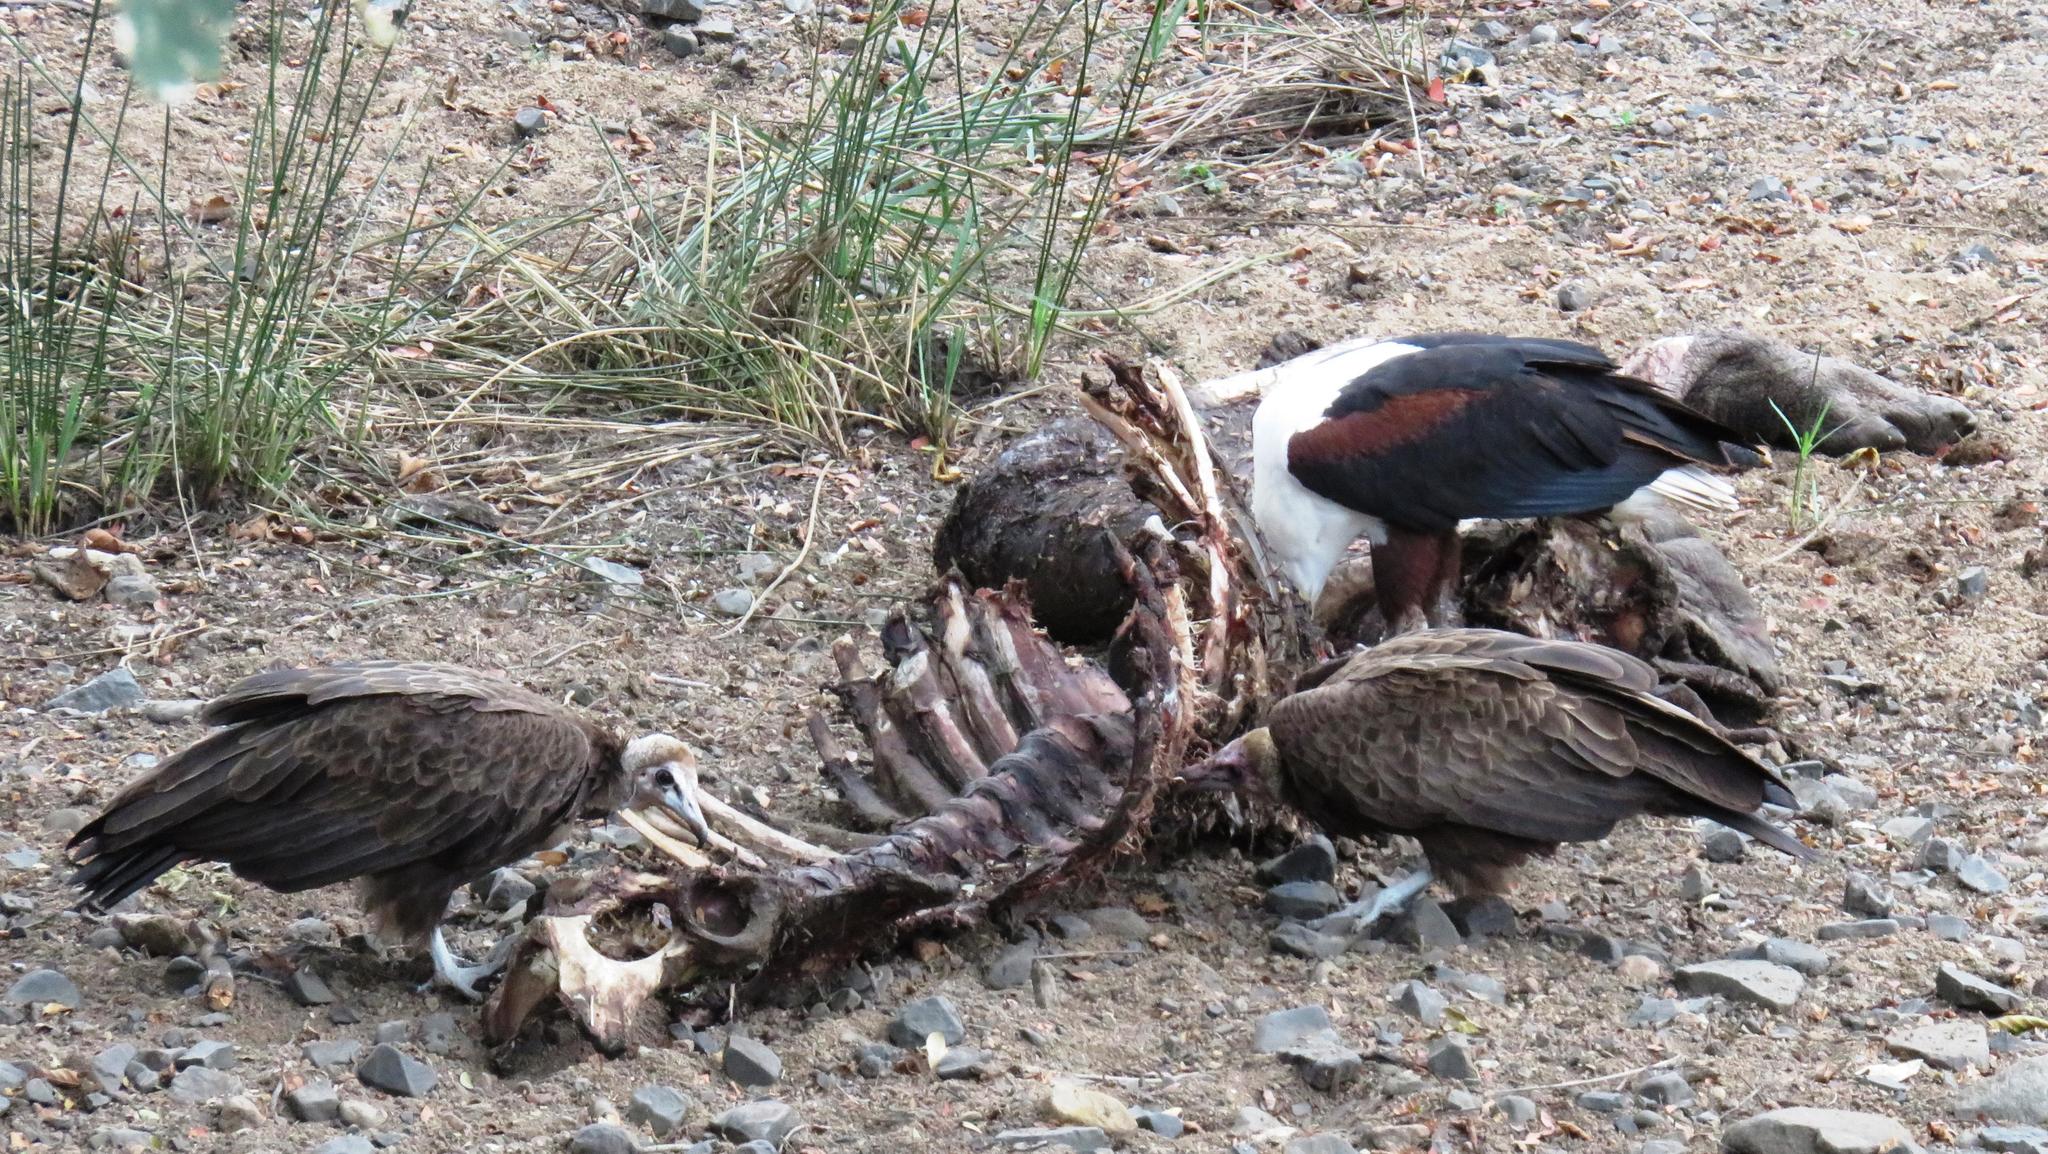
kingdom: Animalia
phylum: Chordata
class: Aves
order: Accipitriformes
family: Accipitridae
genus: Necrosyrtes
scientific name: Necrosyrtes monachus
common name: Hooded vulture
